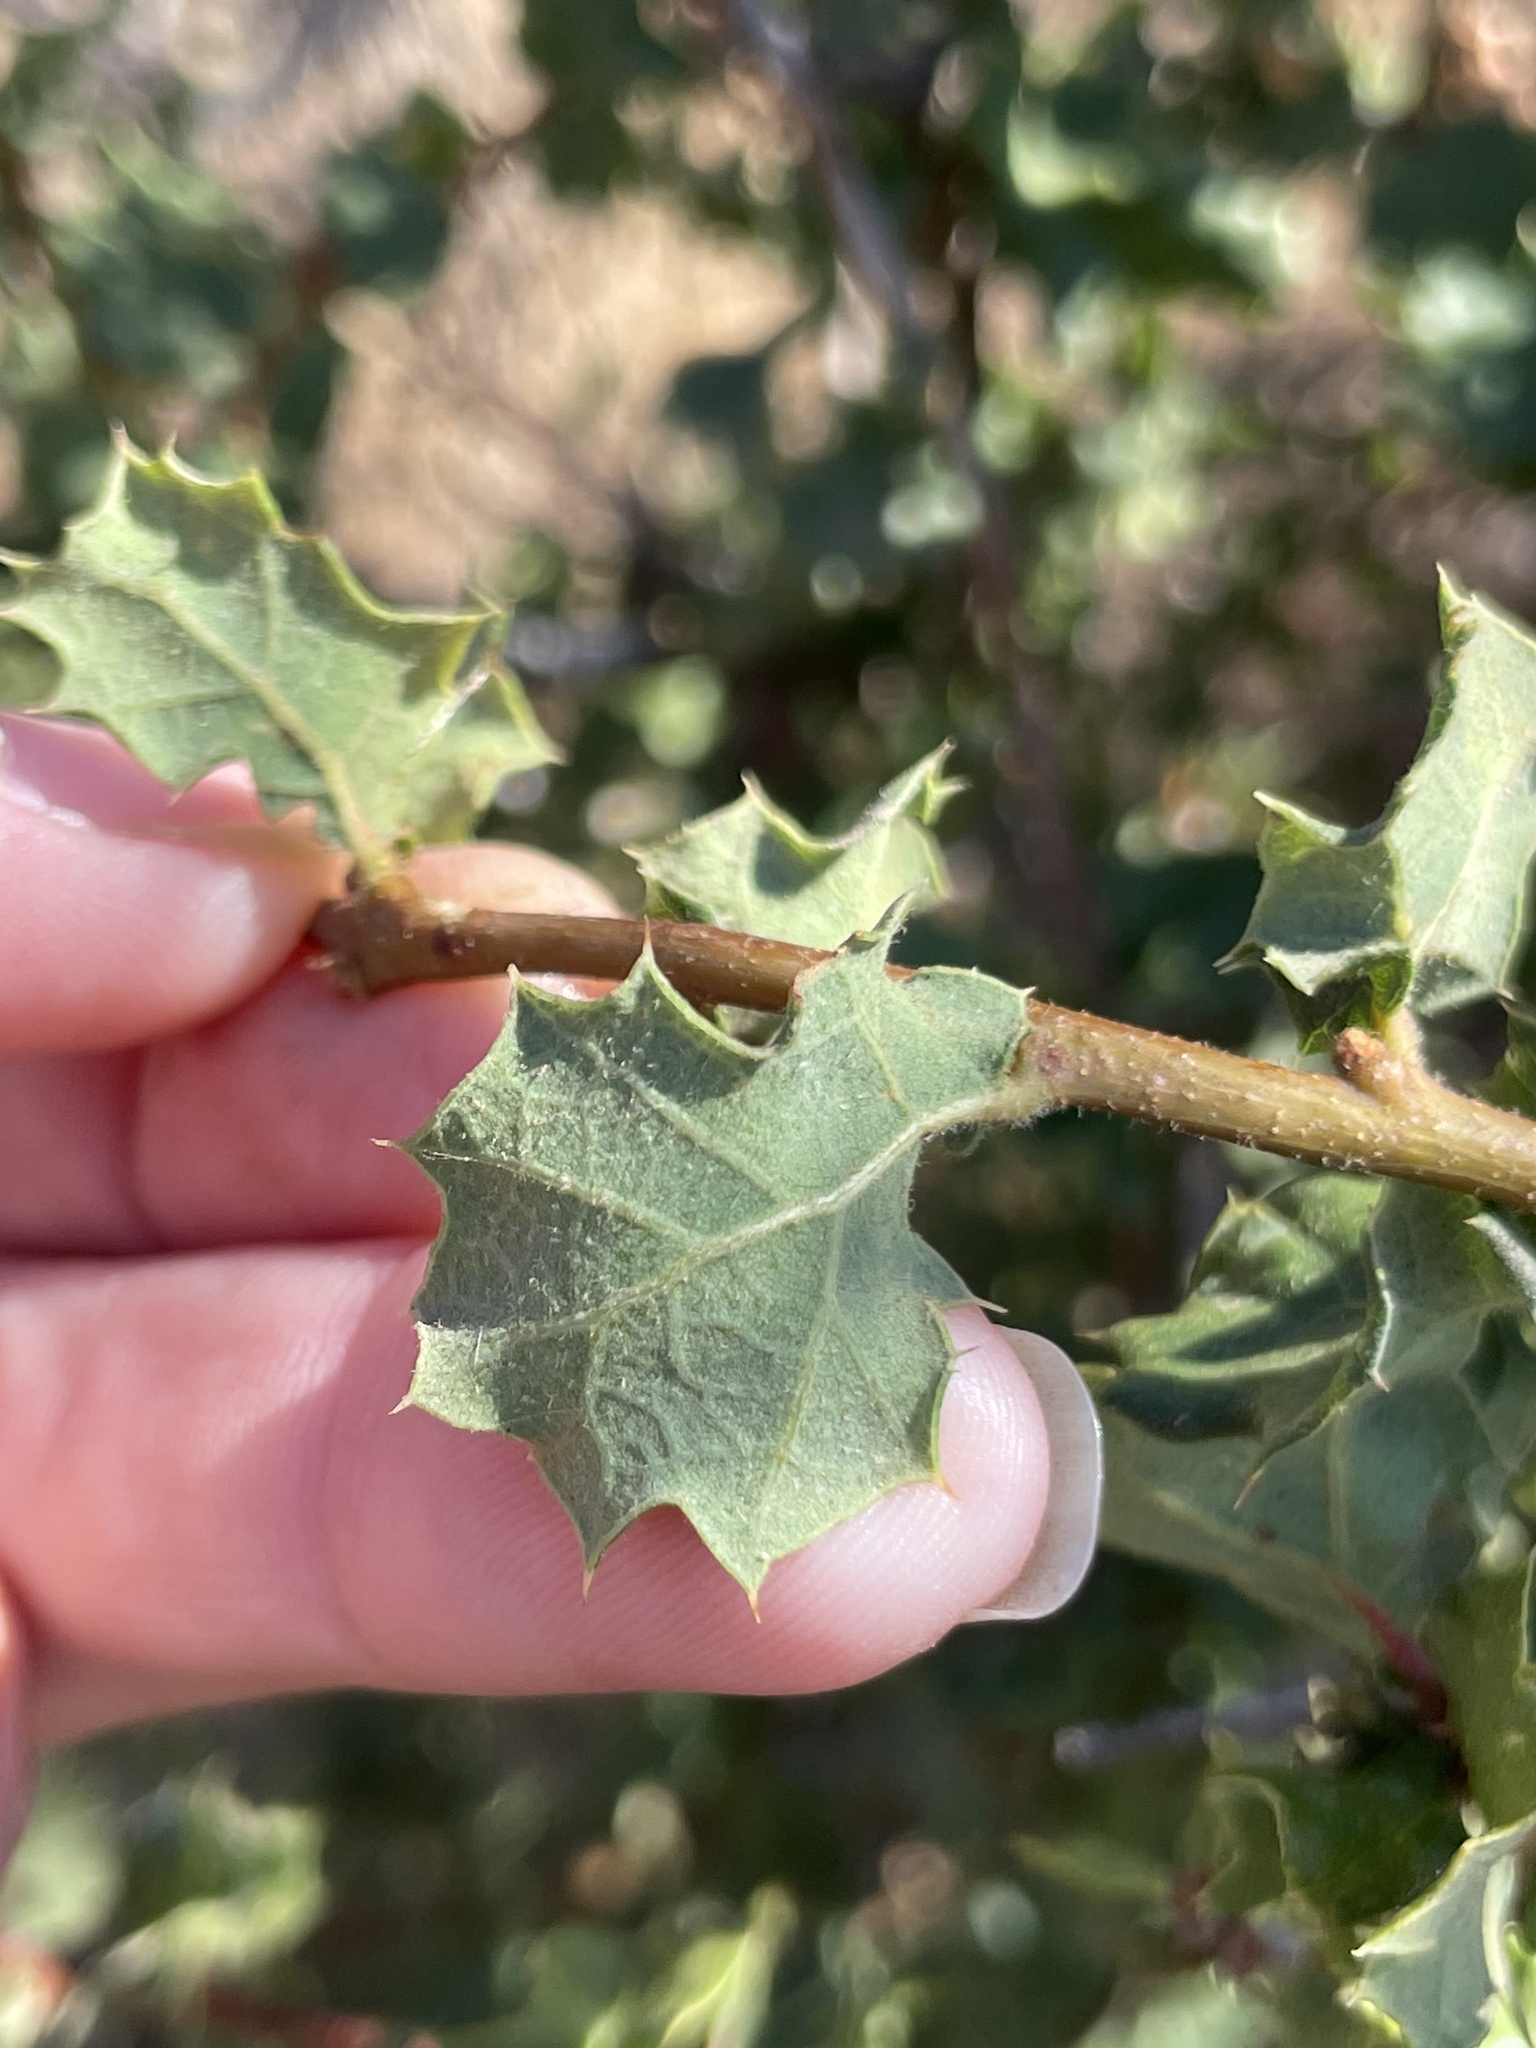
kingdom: Plantae
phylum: Tracheophyta
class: Magnoliopsida
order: Fagales
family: Fagaceae
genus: Quercus
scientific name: Quercus dumosa
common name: Coastal sage scrub oak
